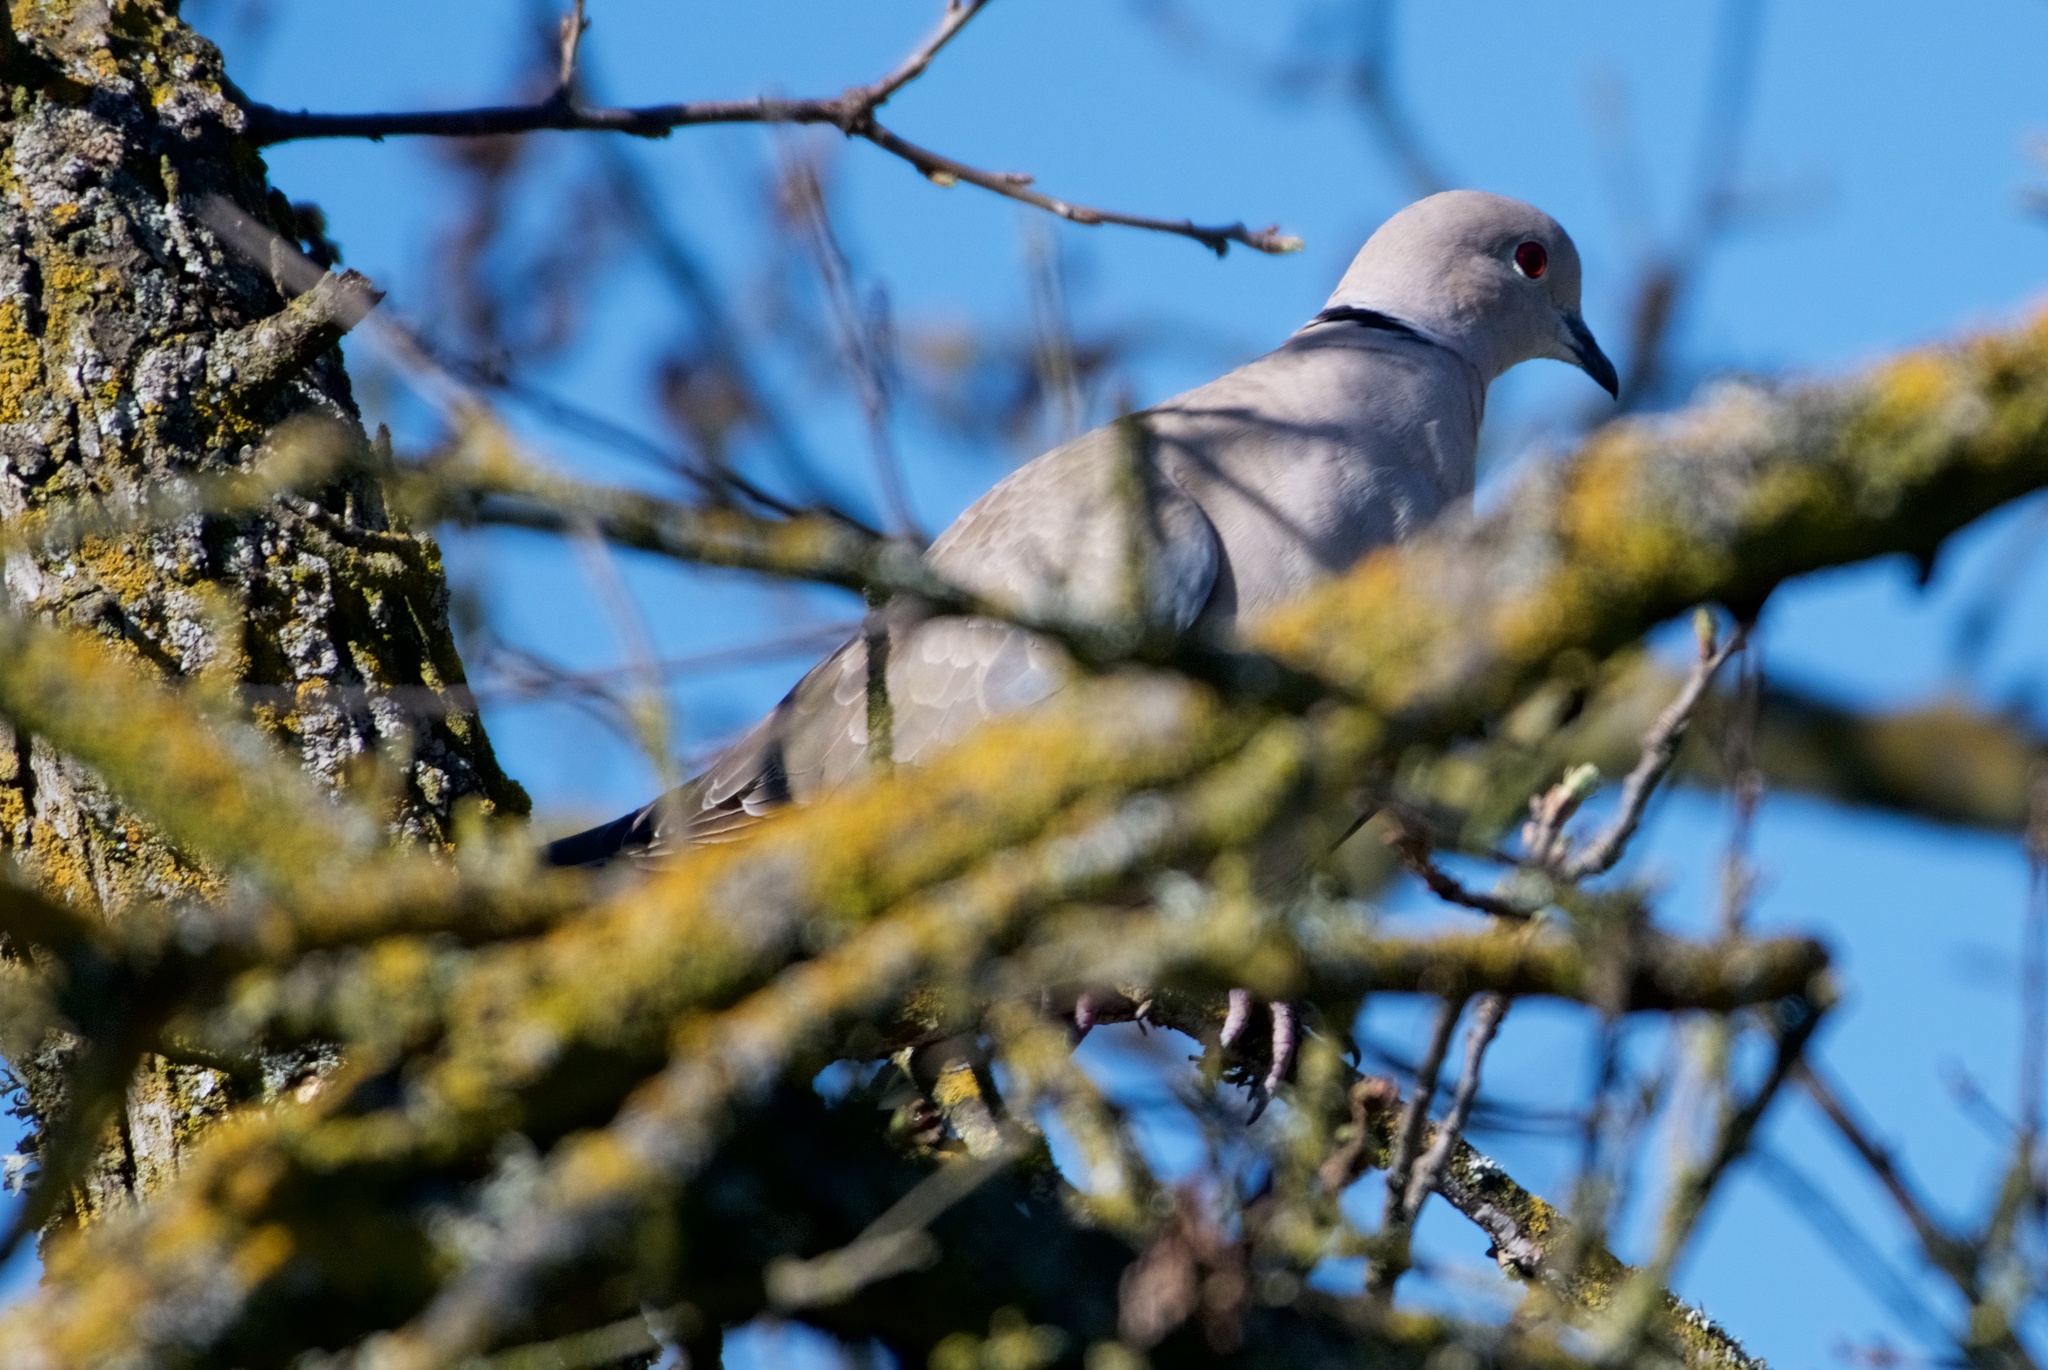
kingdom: Animalia
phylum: Chordata
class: Aves
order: Columbiformes
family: Columbidae
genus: Streptopelia
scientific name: Streptopelia decaocto
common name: Eurasian collared dove
